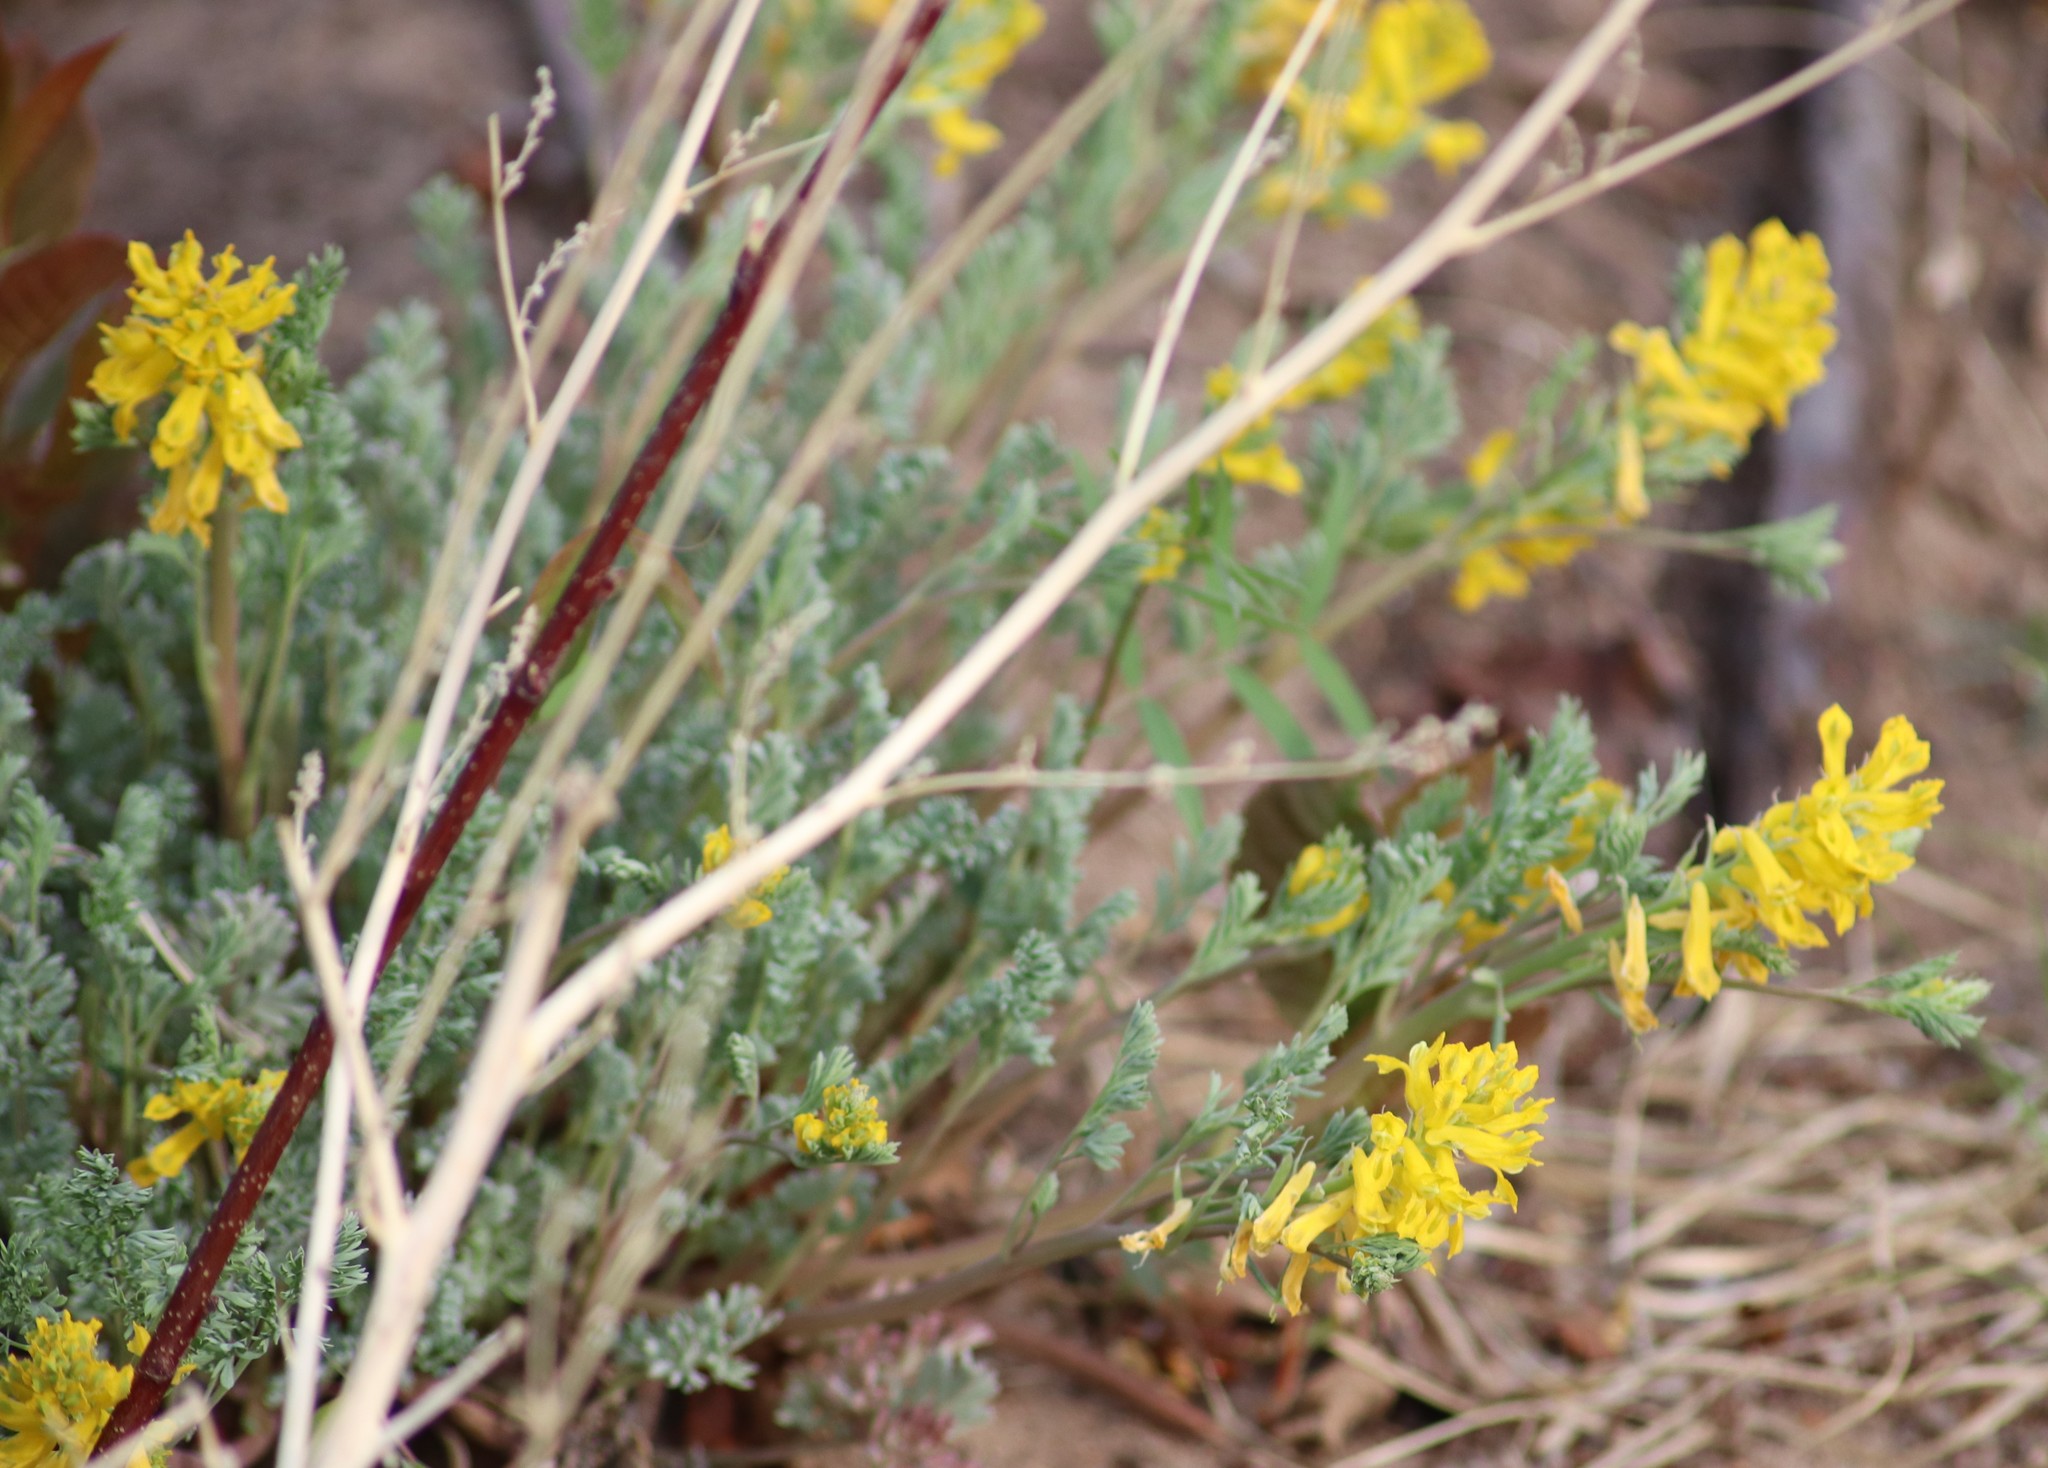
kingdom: Plantae
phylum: Tracheophyta
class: Magnoliopsida
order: Ranunculales
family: Papaveraceae
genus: Corydalis
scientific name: Corydalis aurea
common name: Golden corydalis
